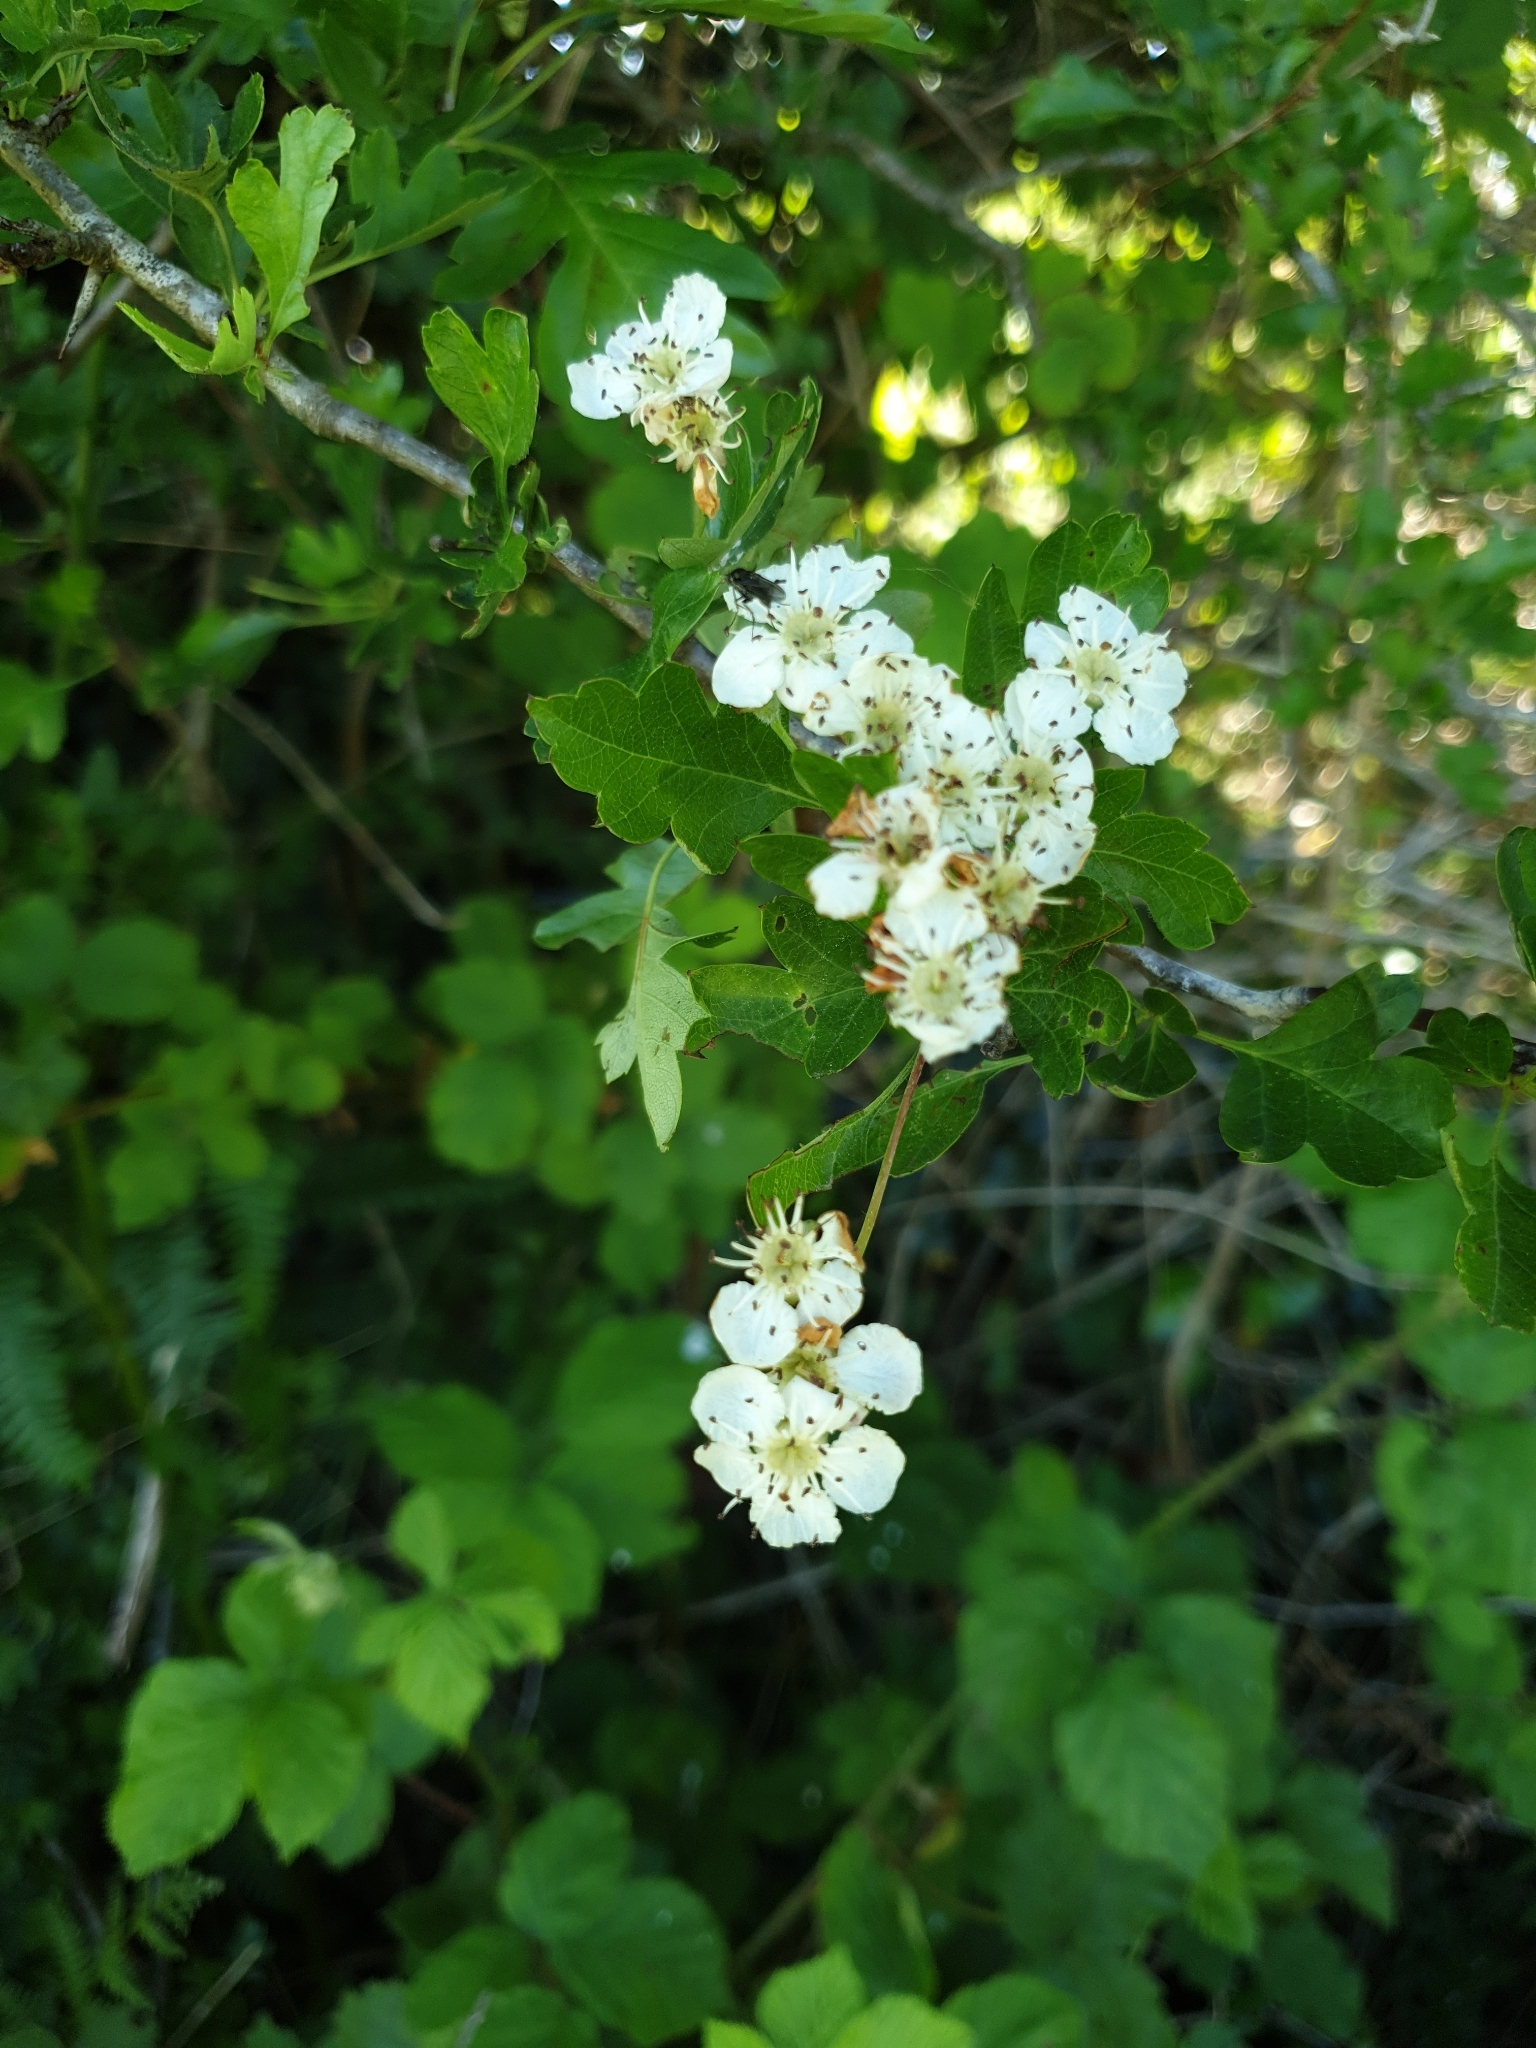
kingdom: Plantae
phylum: Tracheophyta
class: Magnoliopsida
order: Rosales
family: Rosaceae
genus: Crataegus
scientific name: Crataegus monogyna
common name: Hawthorn
